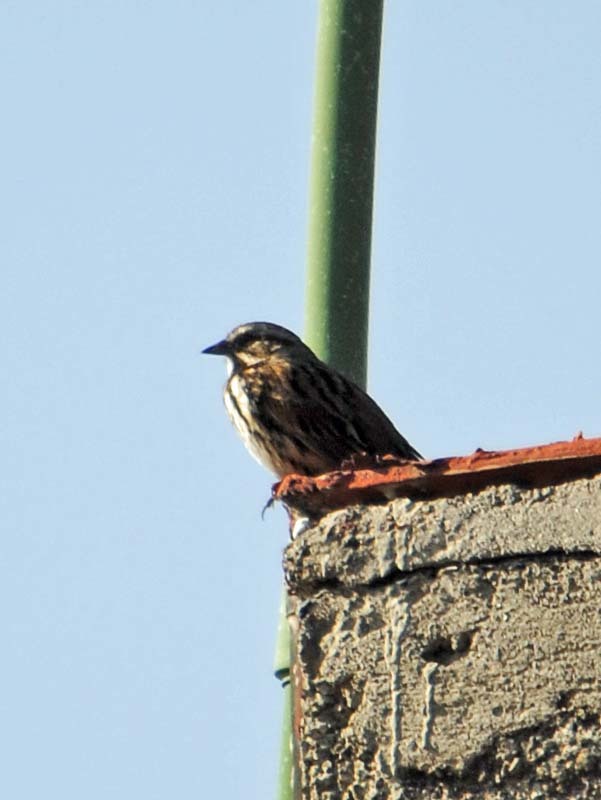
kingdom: Animalia
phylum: Chordata
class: Aves
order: Passeriformes
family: Passerellidae
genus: Melospiza
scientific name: Melospiza melodia
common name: Song sparrow
